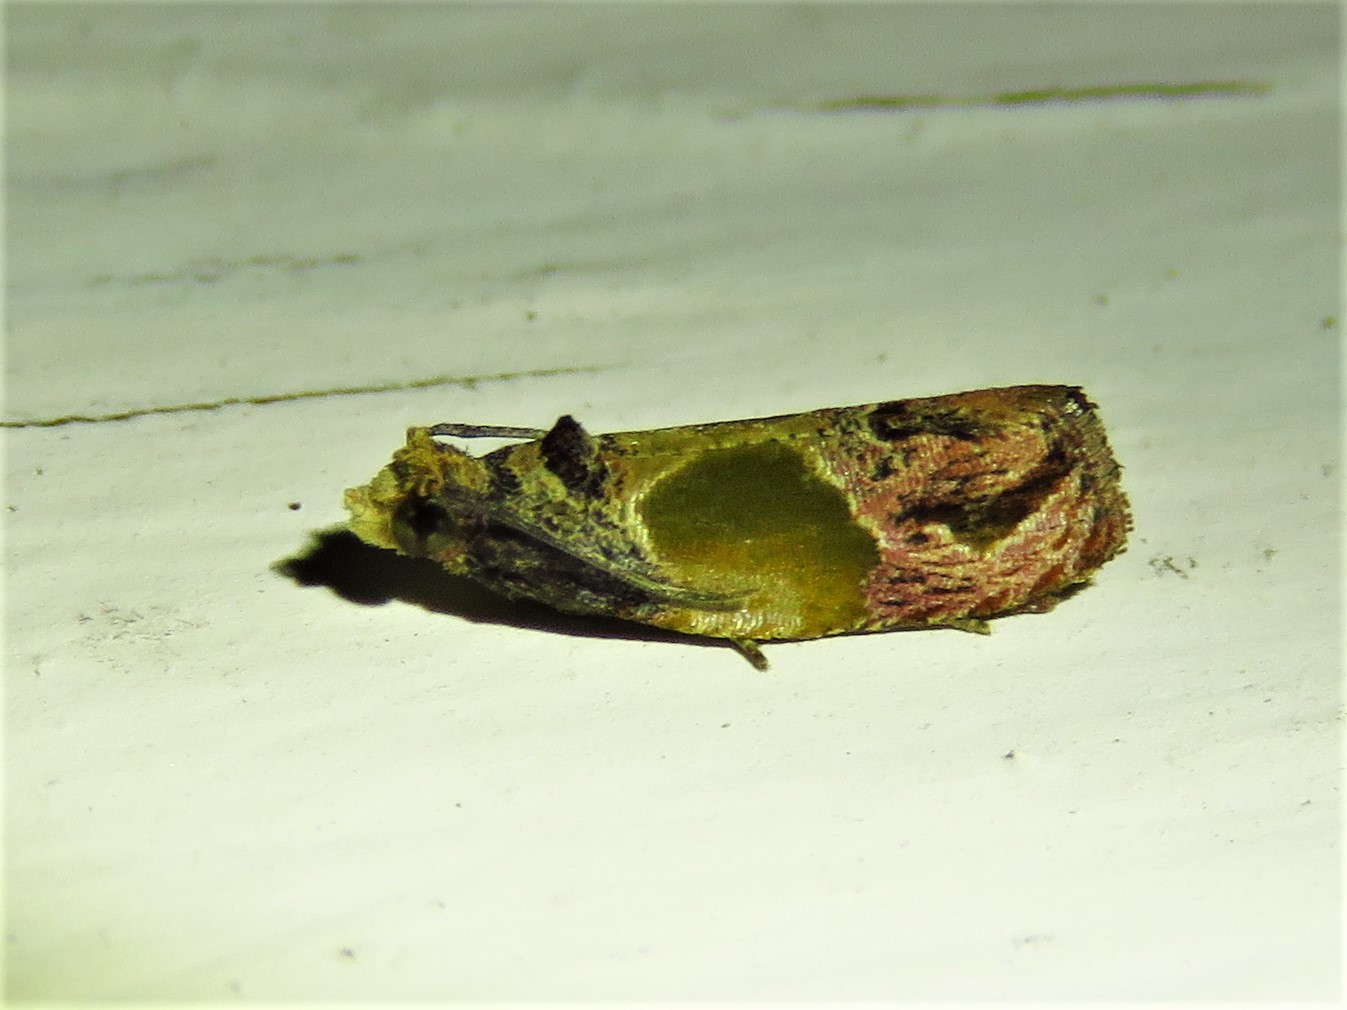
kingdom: Animalia
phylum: Arthropoda
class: Insecta
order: Lepidoptera
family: Tortricidae
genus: Eumarozia
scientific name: Eumarozia malachitana
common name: Sculptured moth
